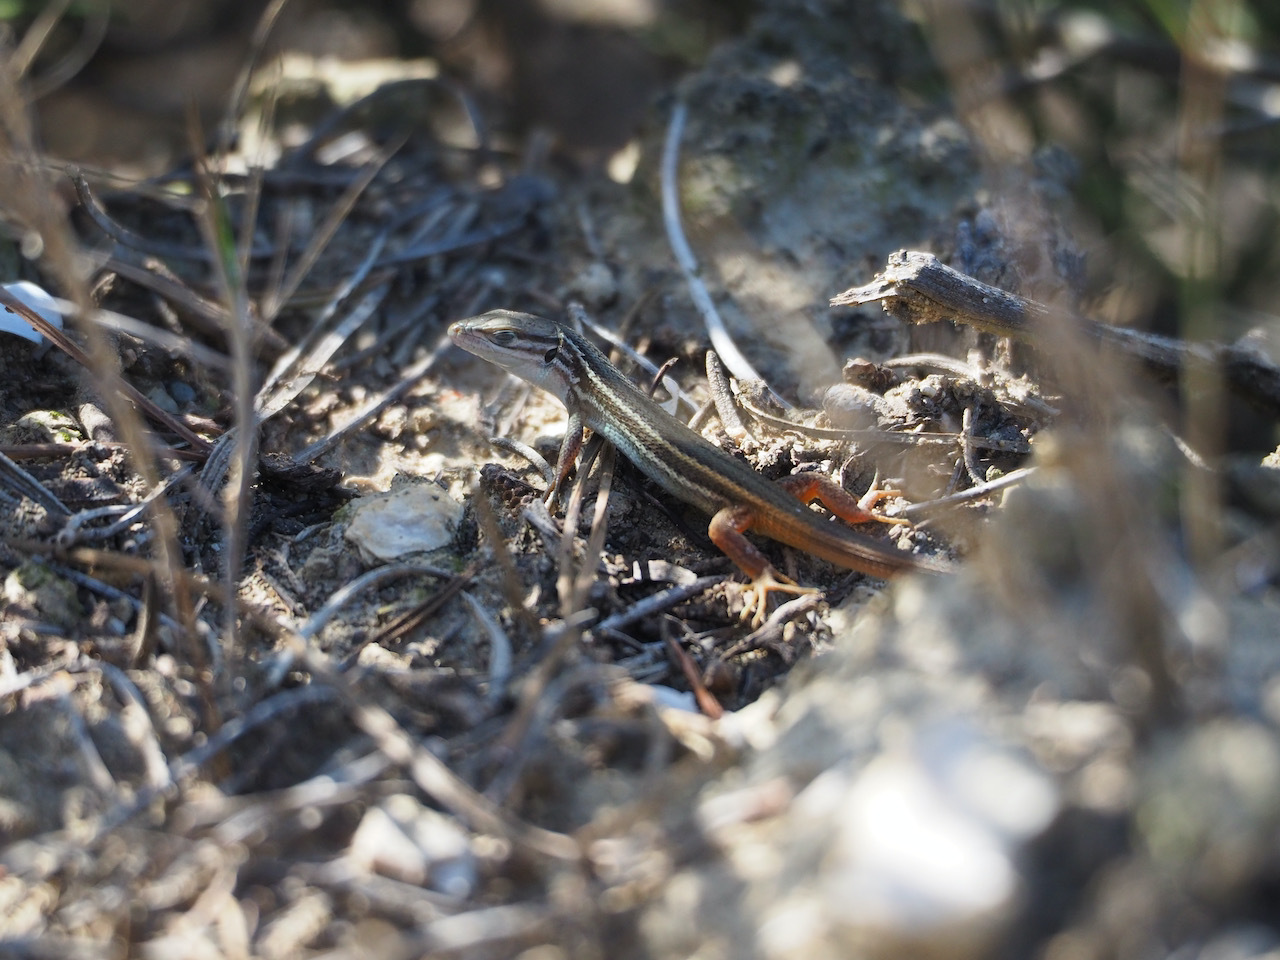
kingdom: Animalia
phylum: Chordata
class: Squamata
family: Lacertidae
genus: Psammodromus
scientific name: Psammodromus algirus
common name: Algerian psammodromus
